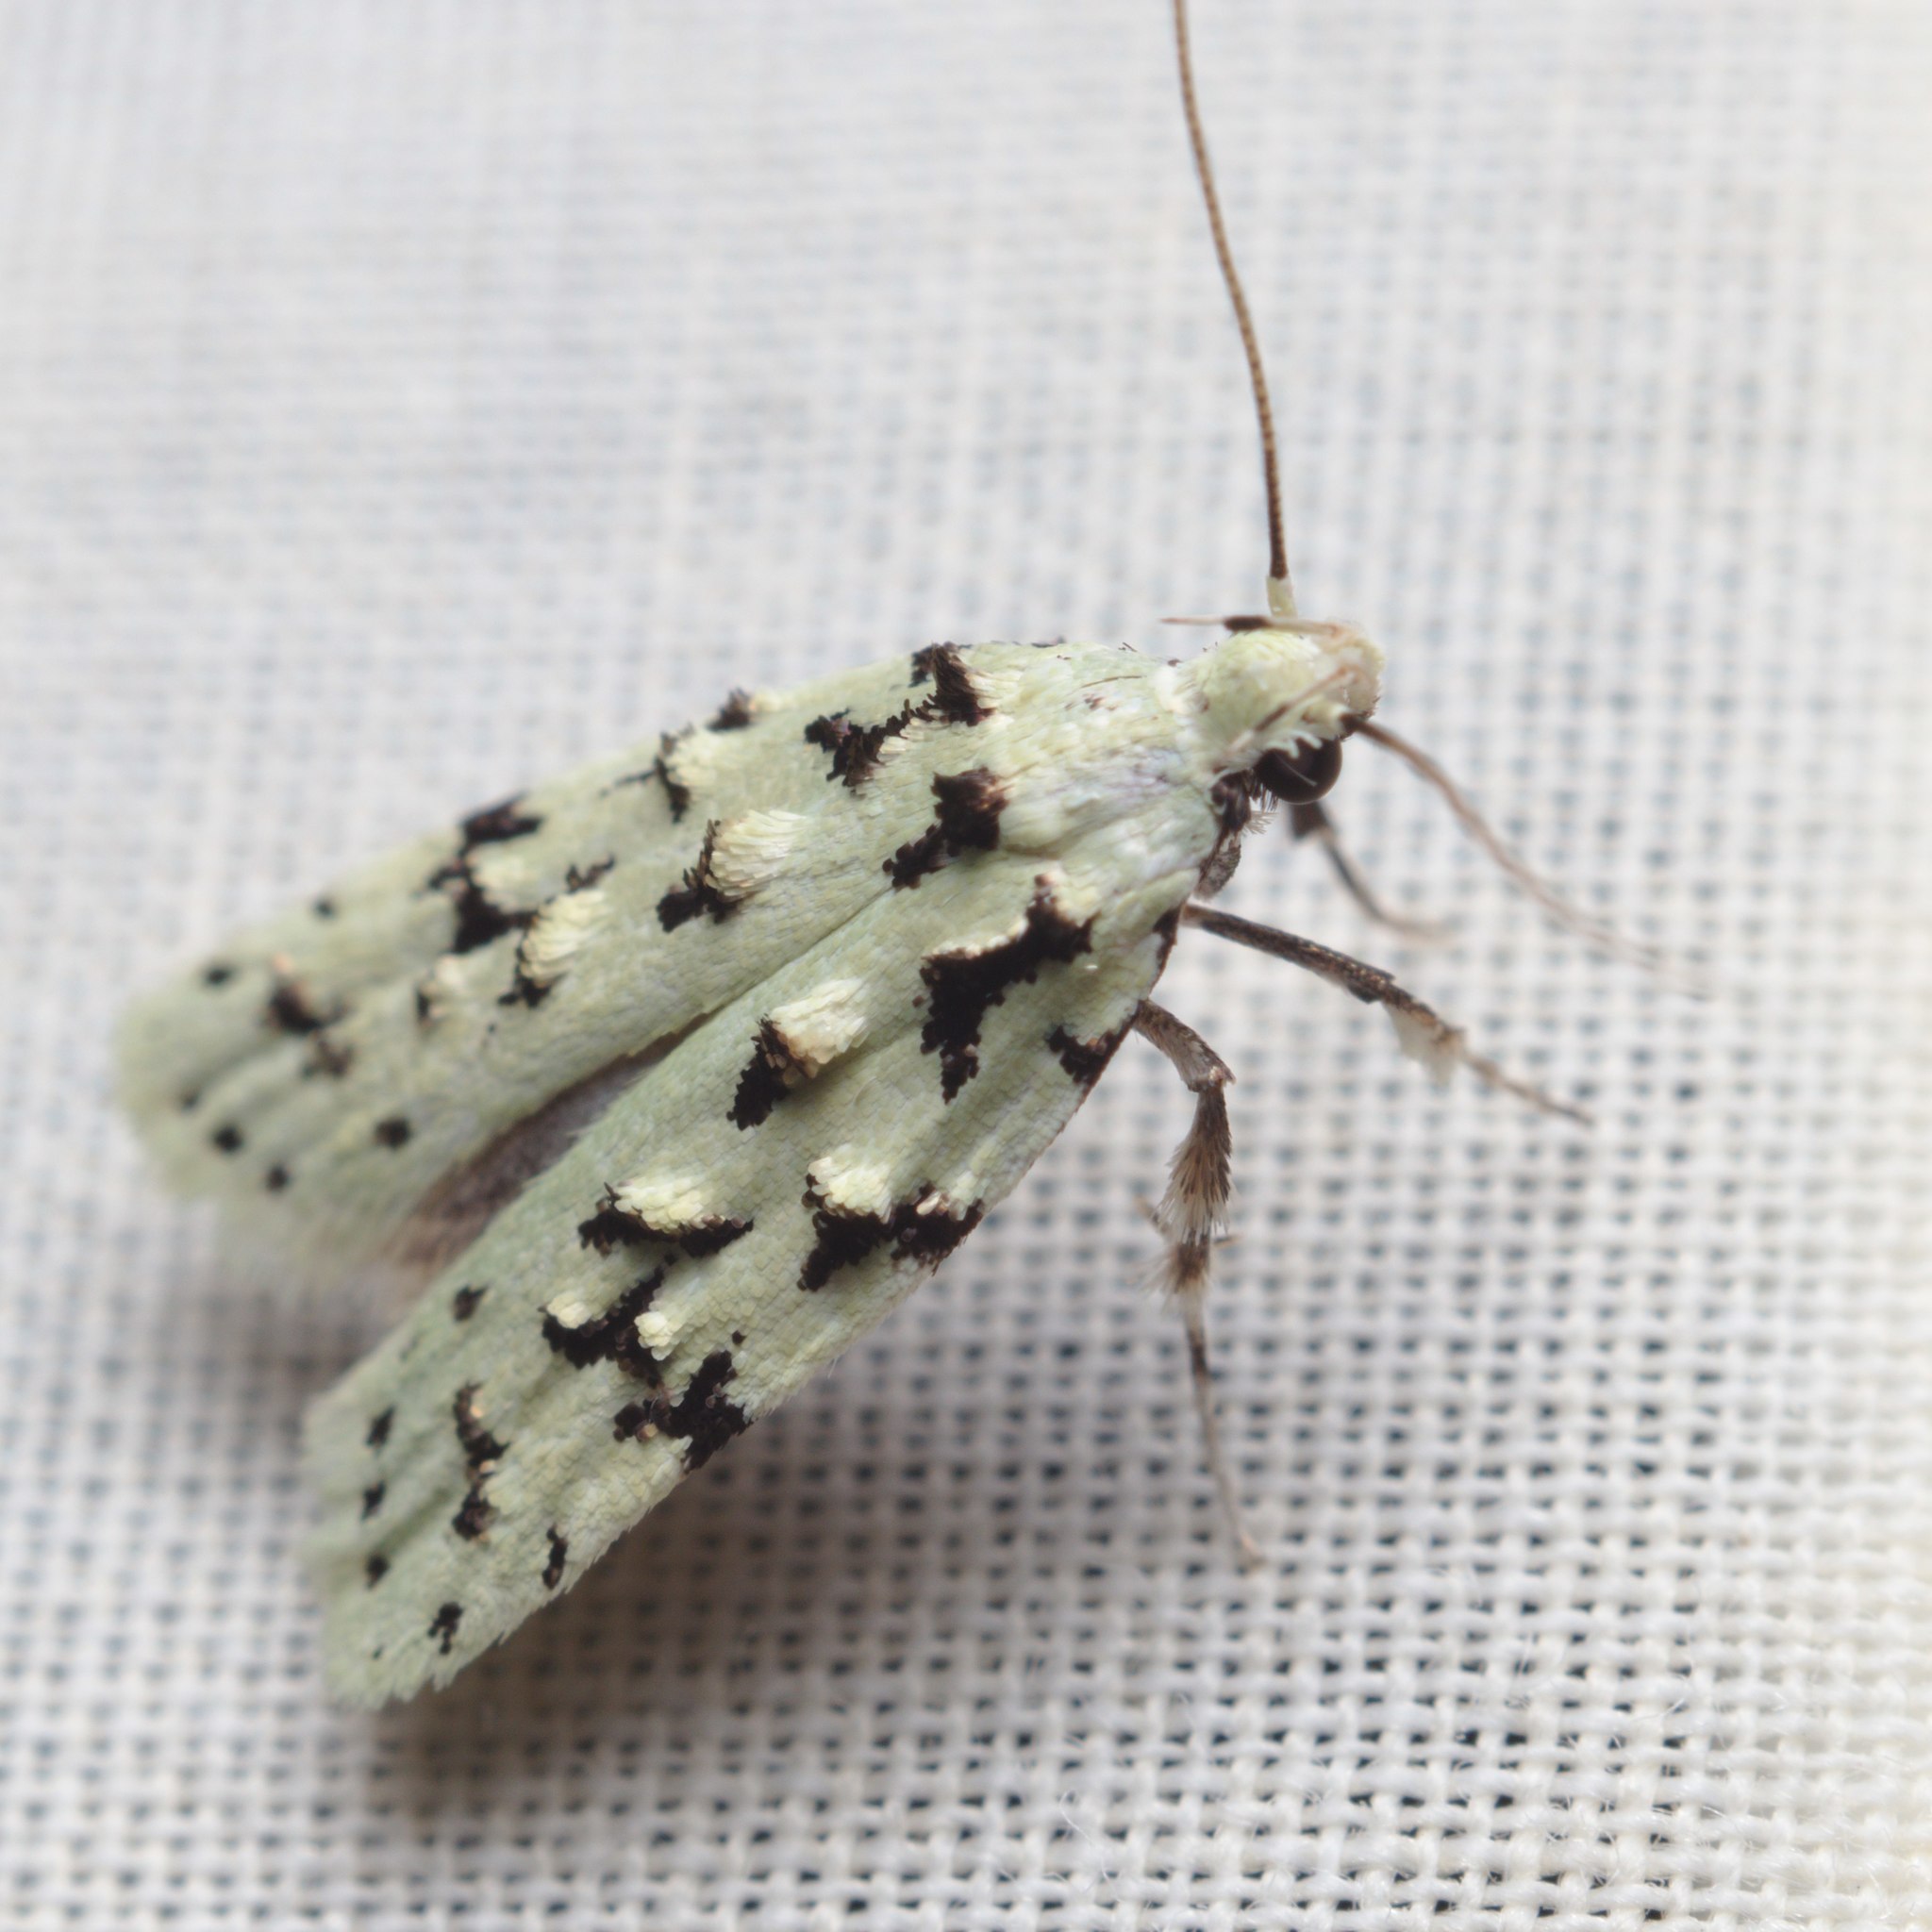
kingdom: Animalia
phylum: Arthropoda
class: Insecta
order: Lepidoptera
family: Oecophoridae
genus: Izatha
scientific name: Izatha peroneanella
